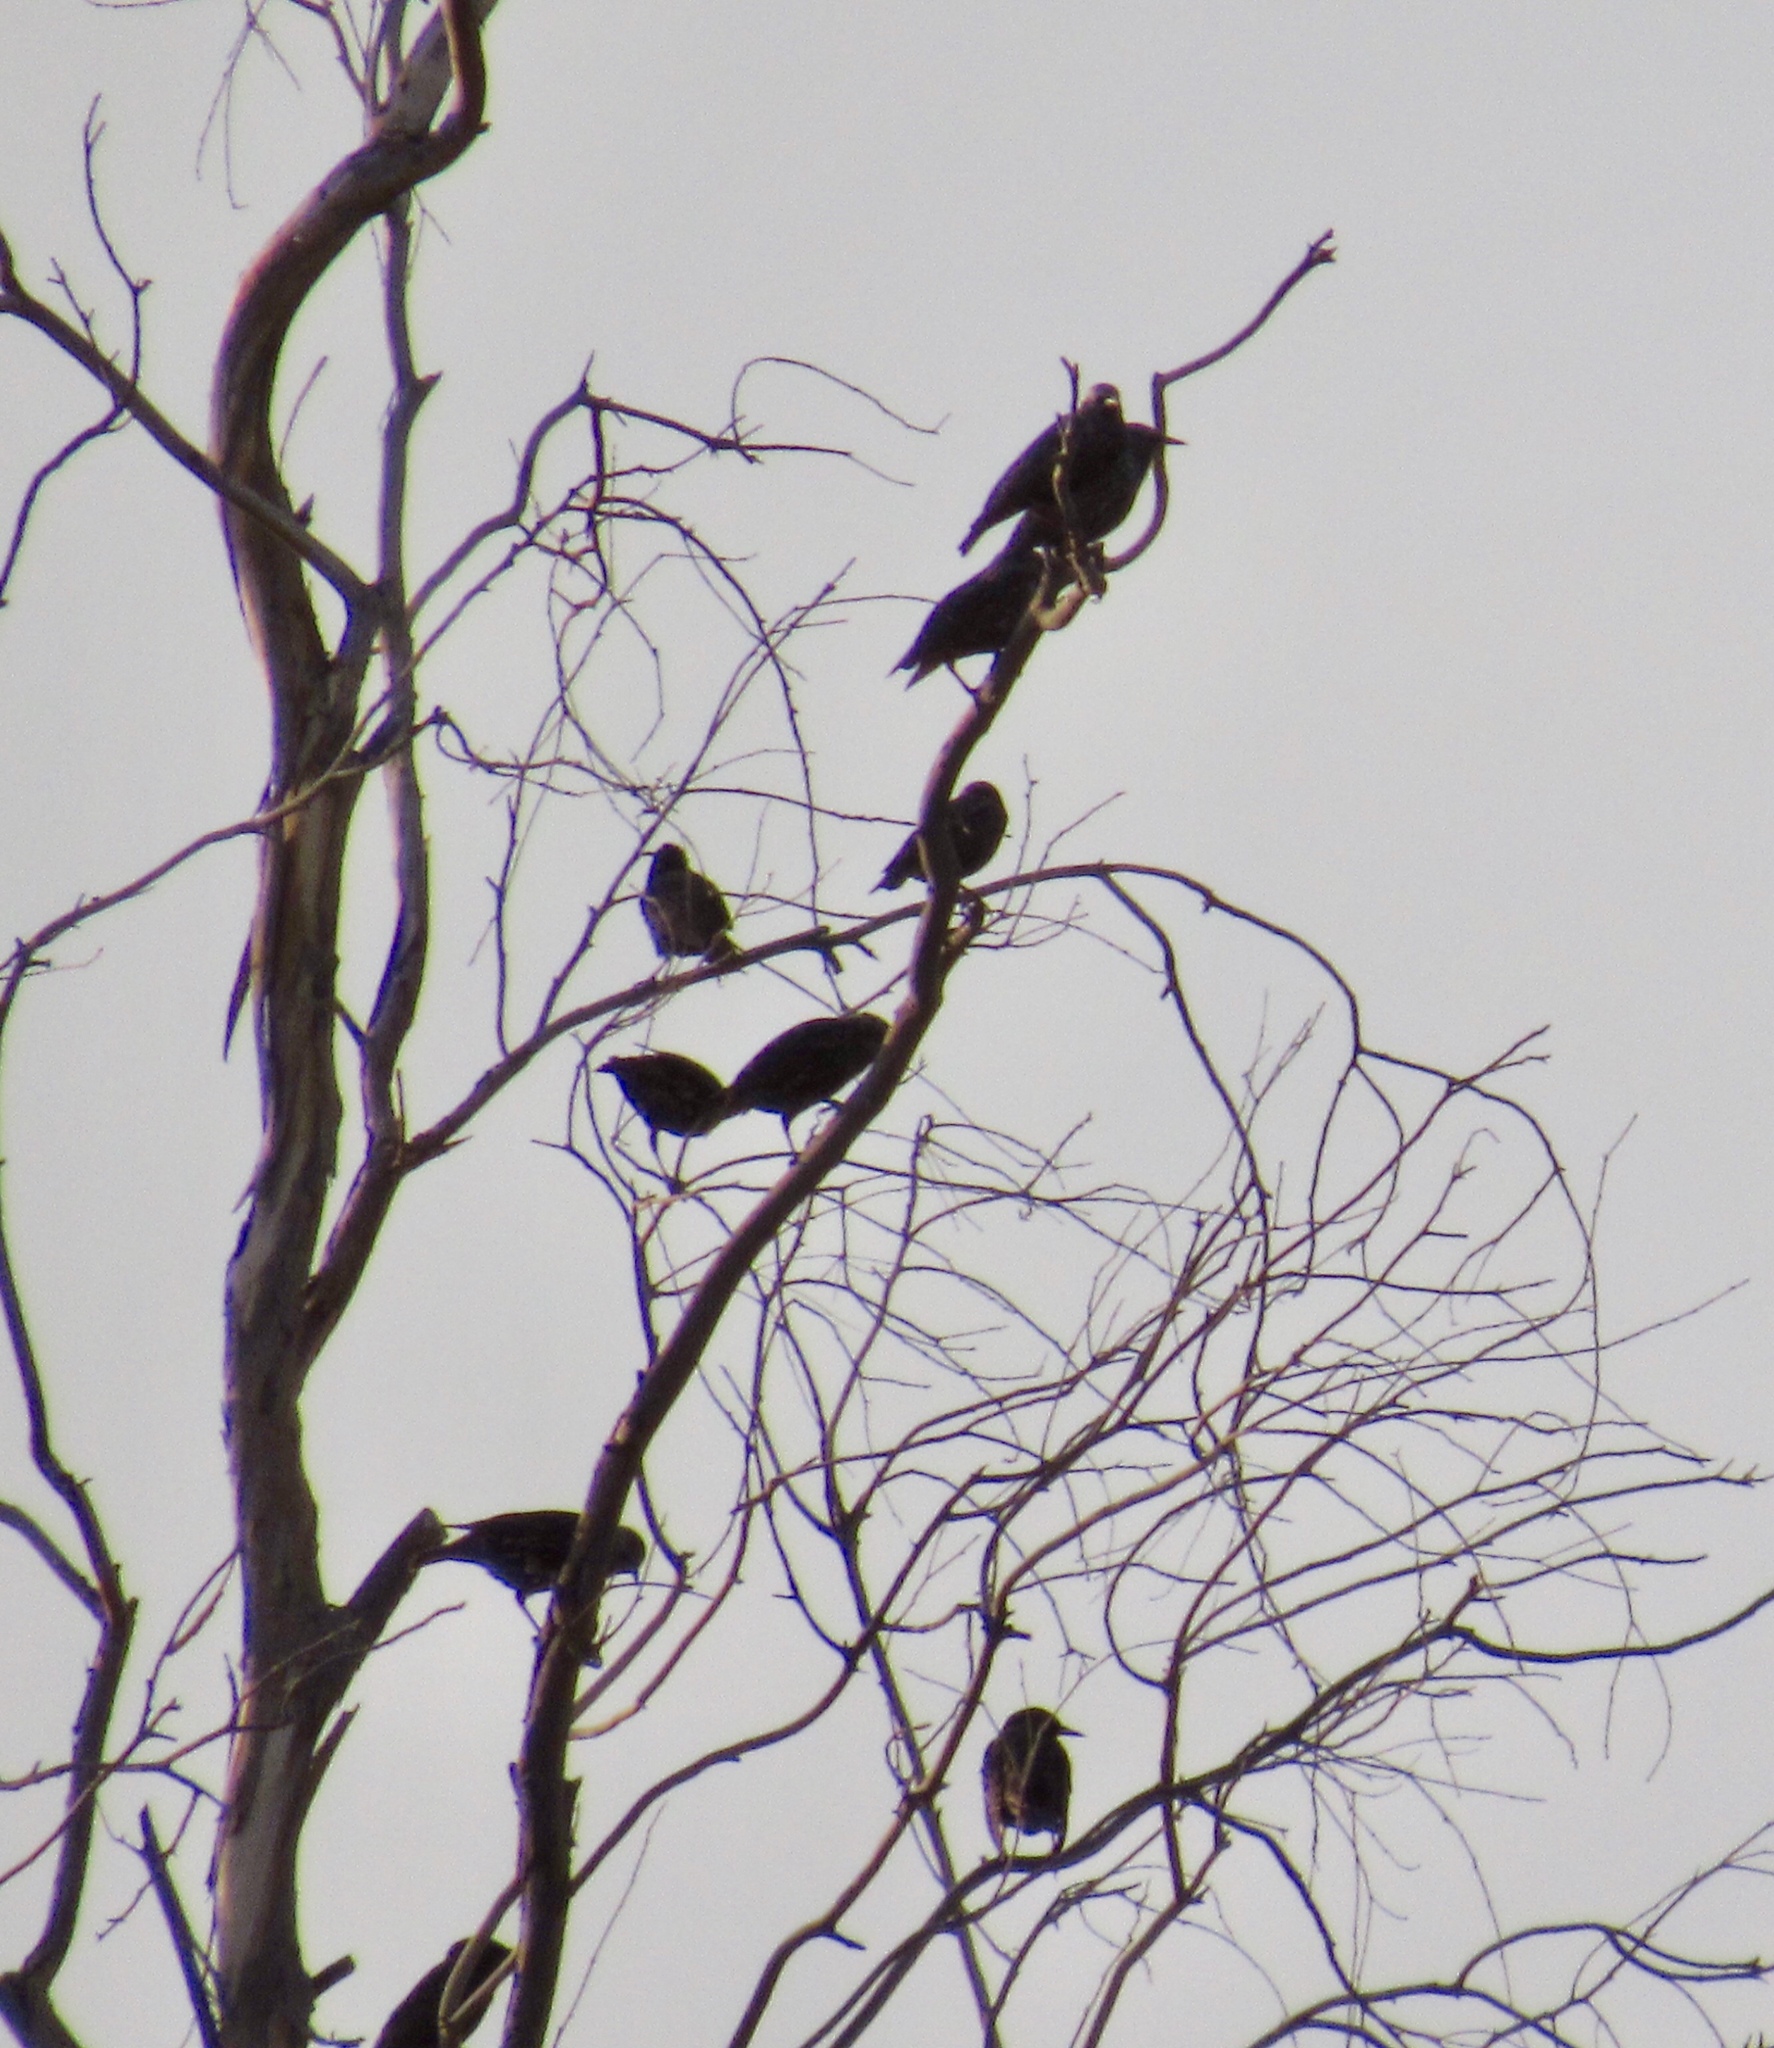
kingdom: Animalia
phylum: Chordata
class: Aves
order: Passeriformes
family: Sturnidae
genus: Sturnus
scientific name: Sturnus vulgaris
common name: Common starling
